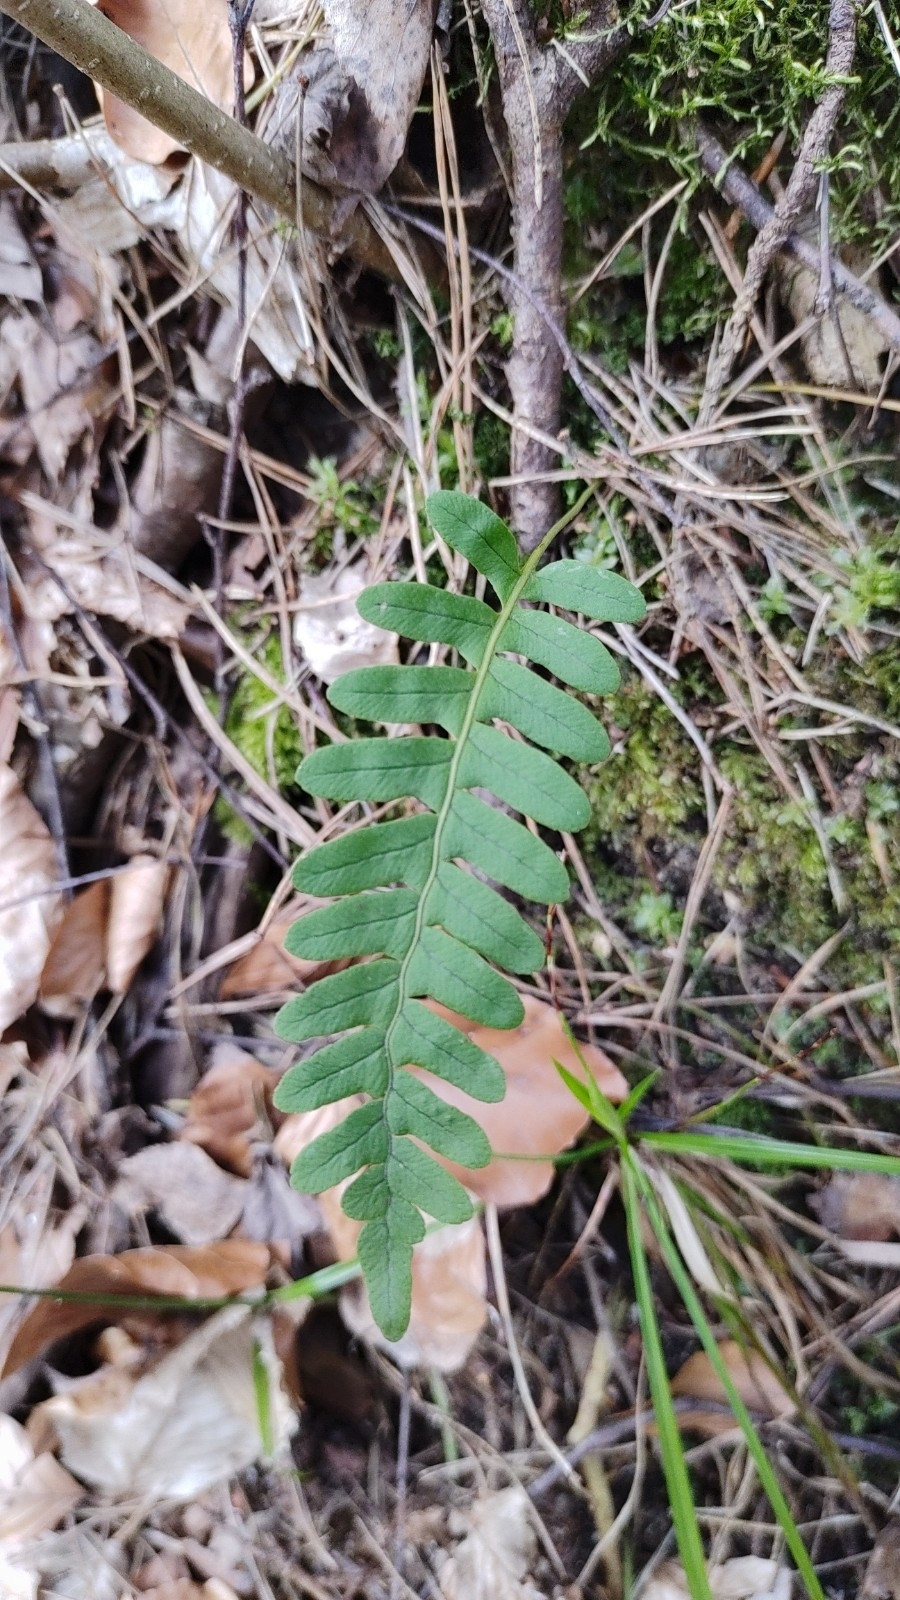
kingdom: Plantae
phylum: Tracheophyta
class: Polypodiopsida
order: Polypodiales
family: Polypodiaceae
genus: Polypodium
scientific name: Polypodium vulgare
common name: Common polypody
